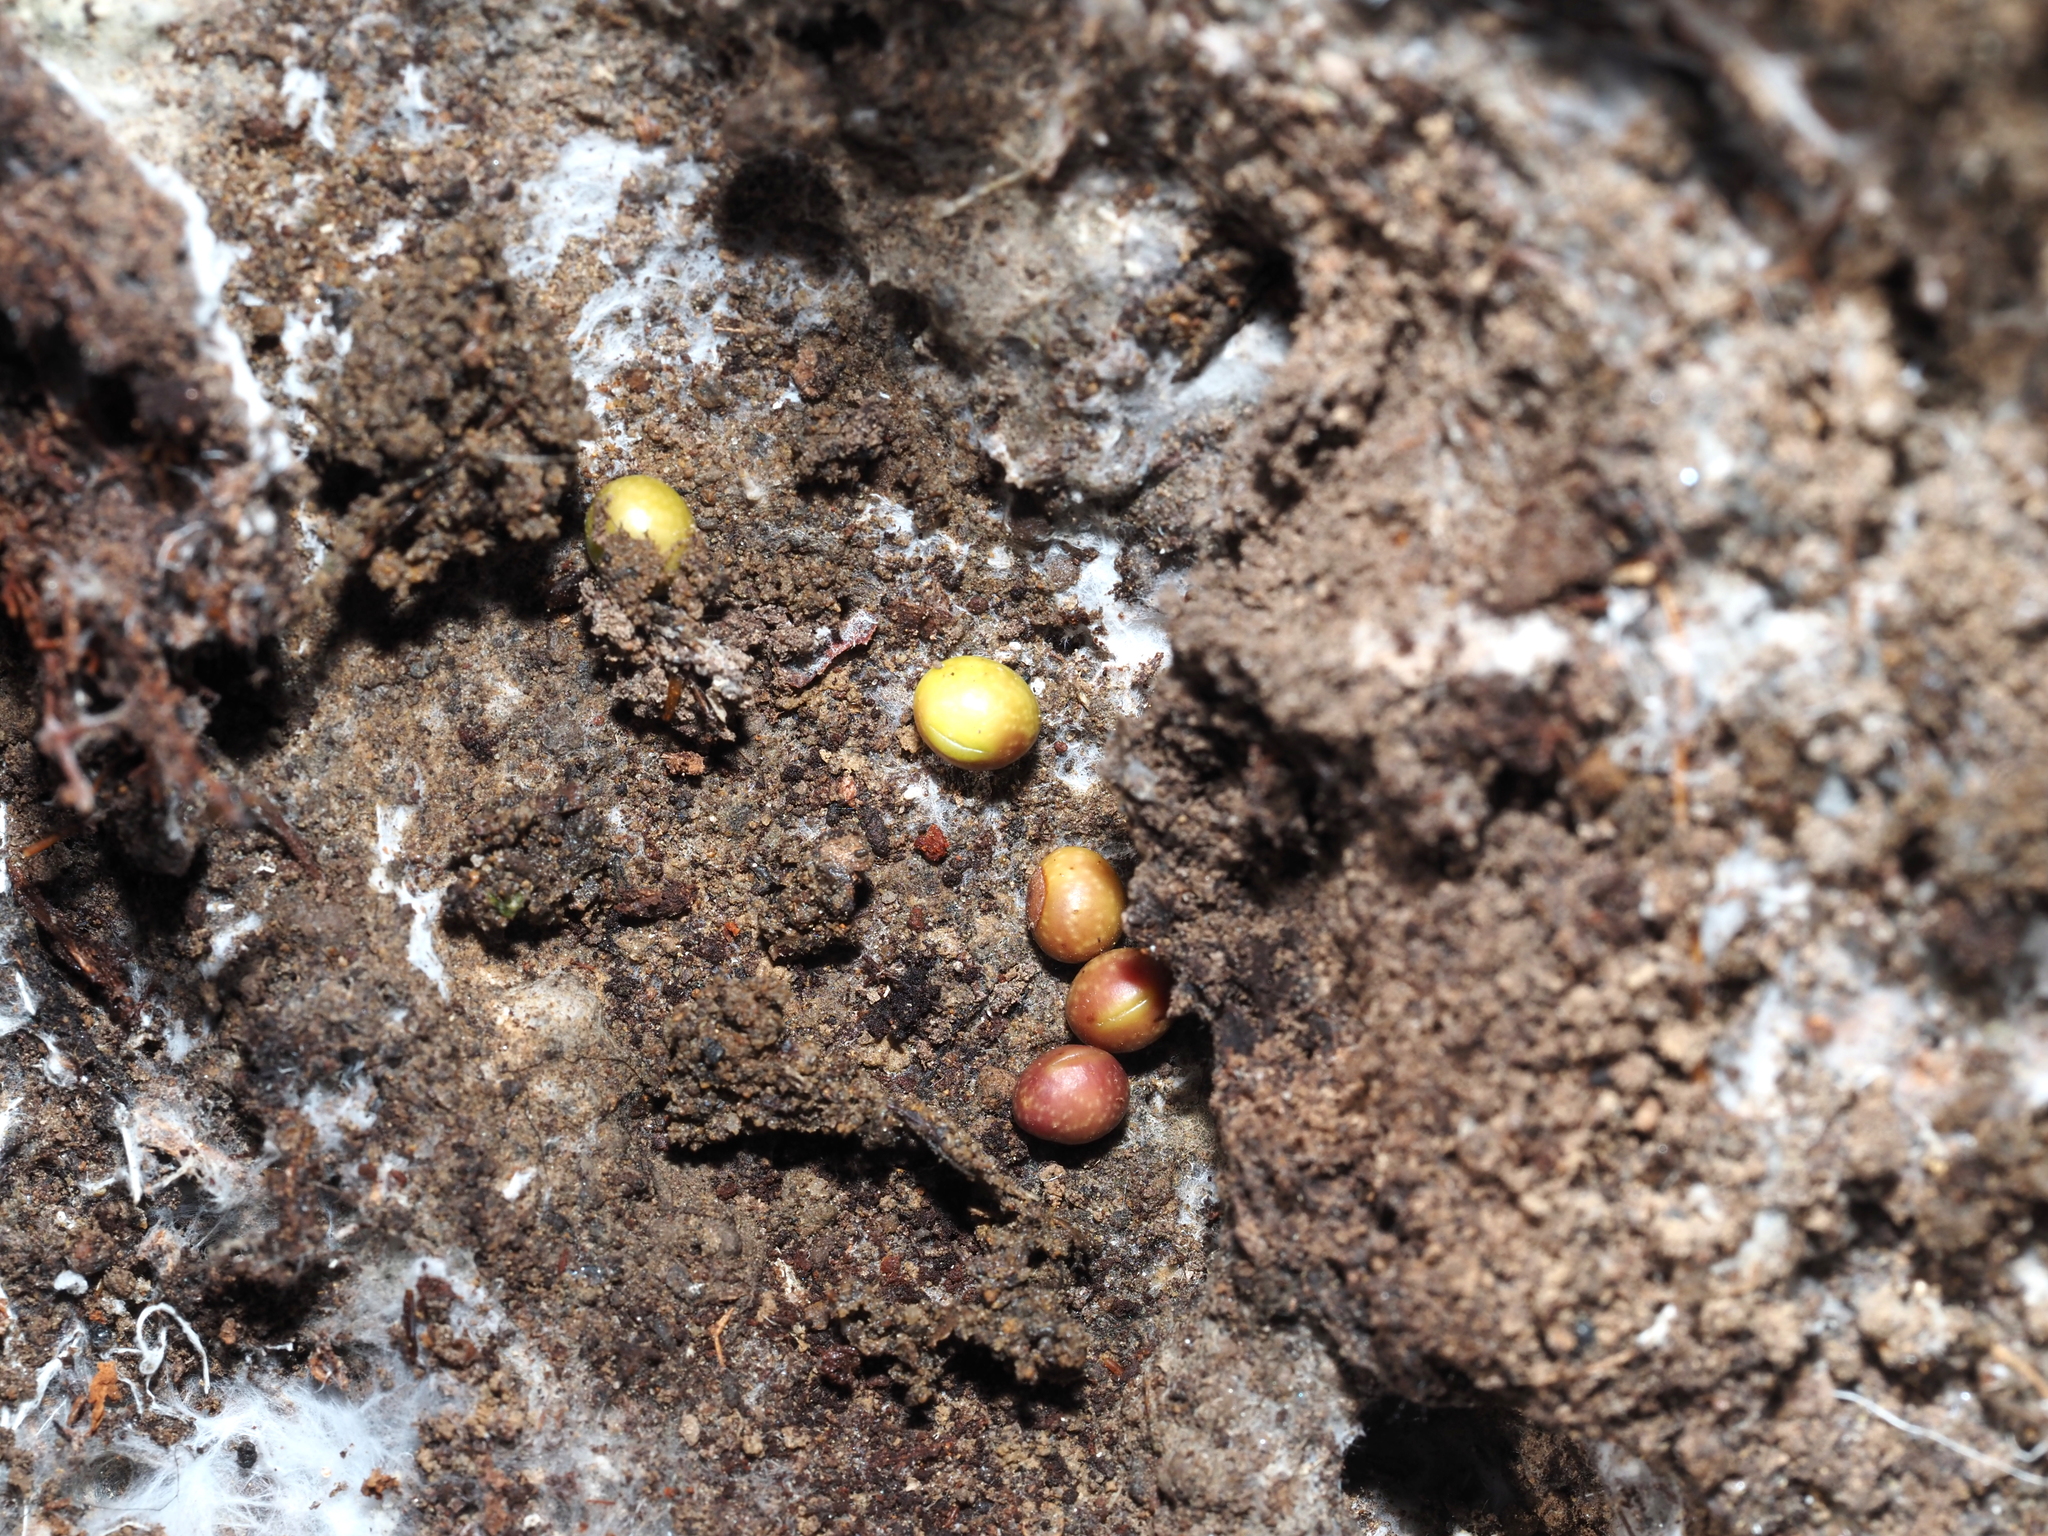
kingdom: Animalia
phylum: Arthropoda
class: Insecta
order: Hymenoptera
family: Cynipidae
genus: Kokkocynips
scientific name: Kokkocynips rileyi
